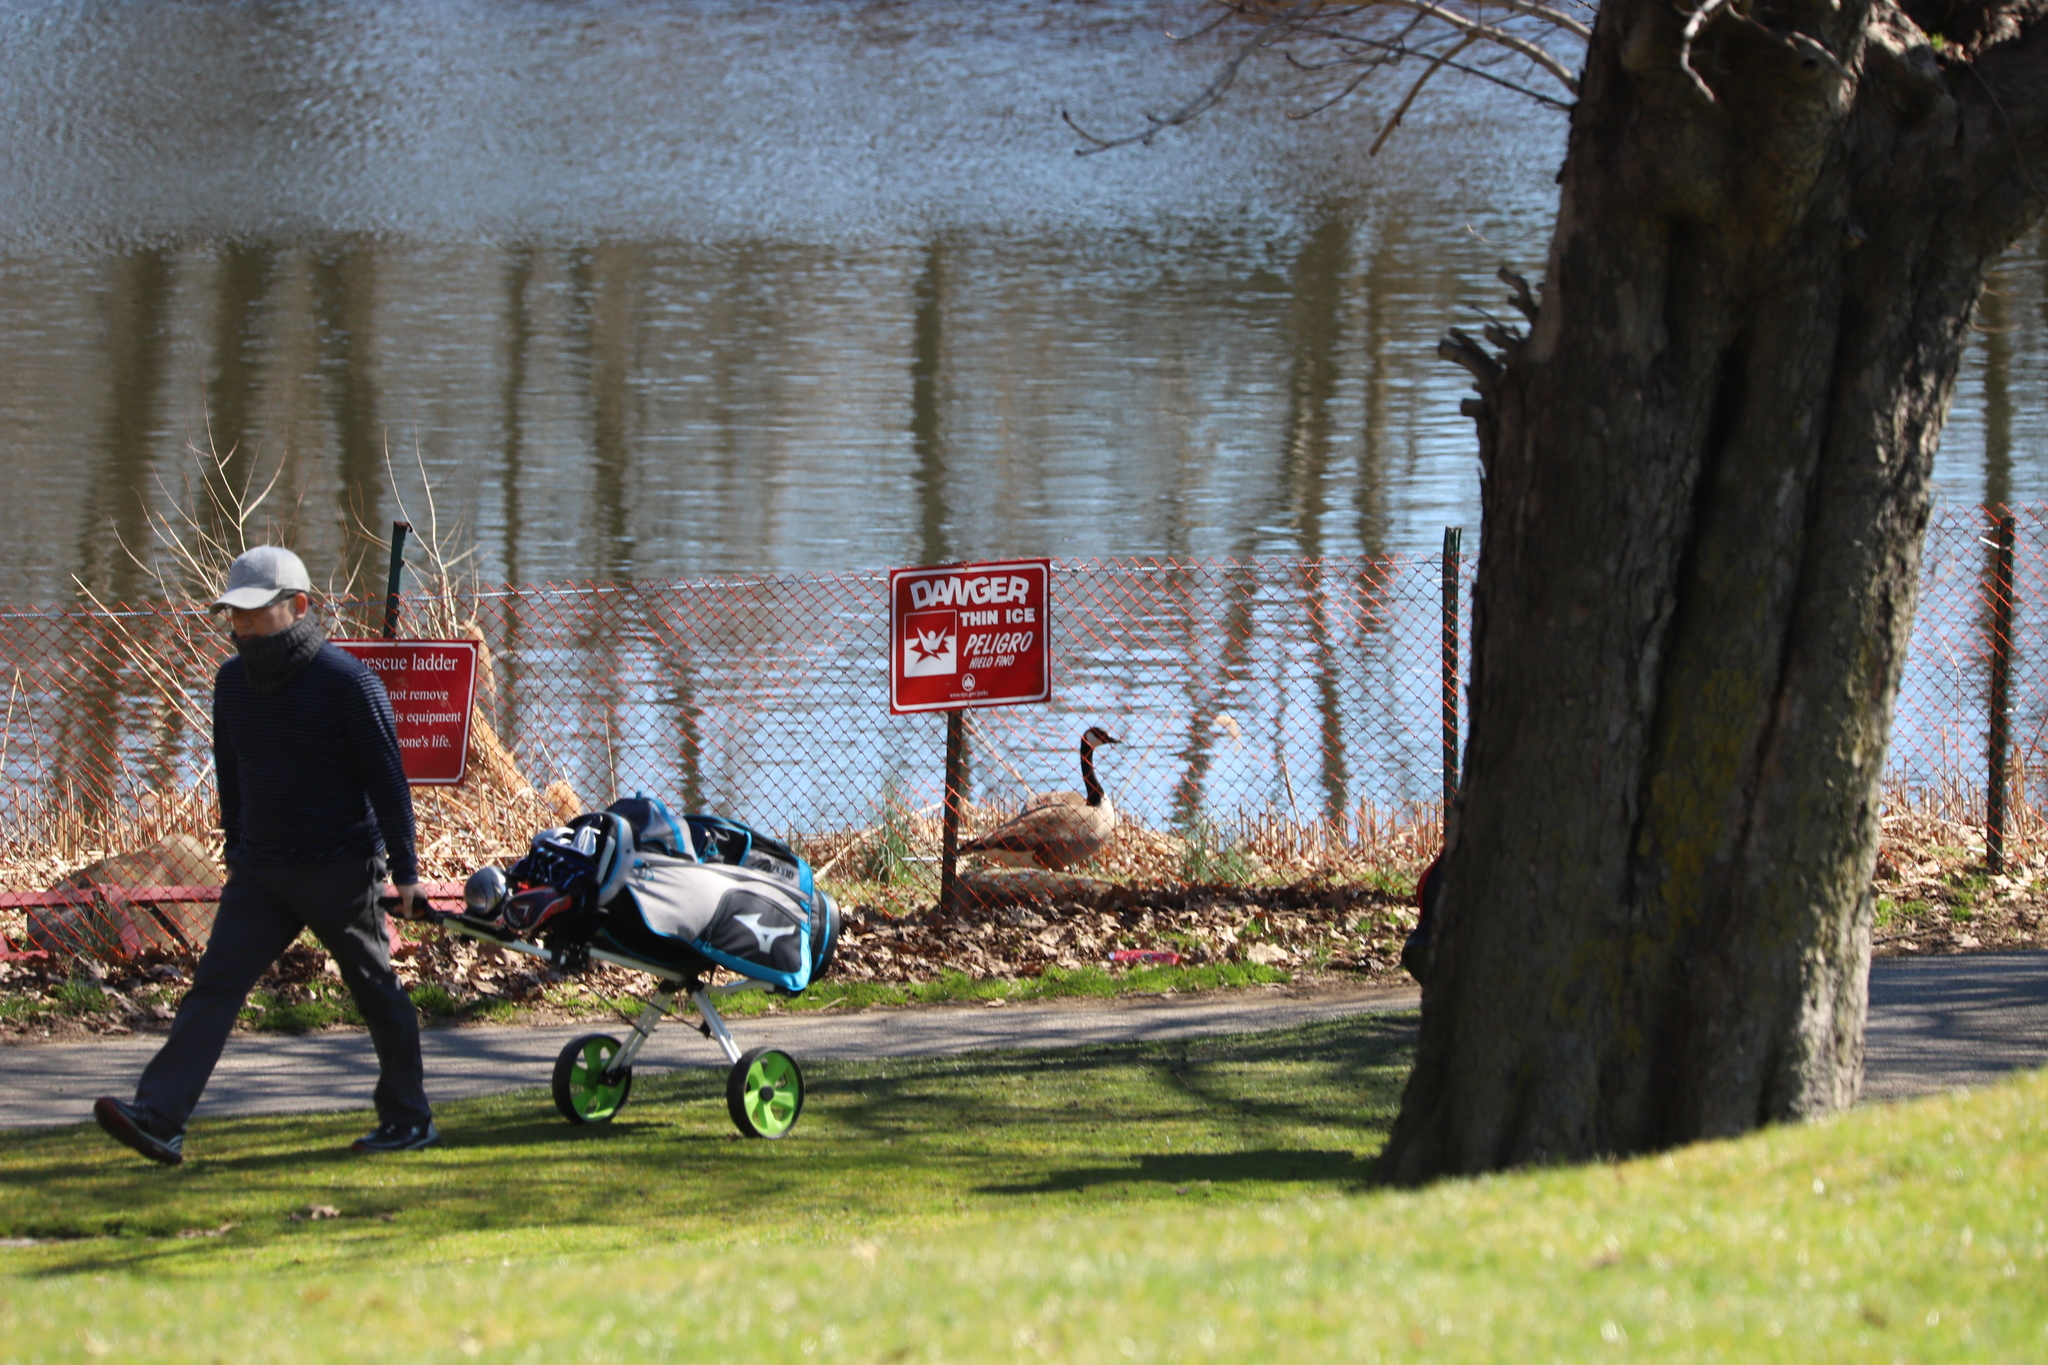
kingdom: Animalia
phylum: Chordata
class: Aves
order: Anseriformes
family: Anatidae
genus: Branta
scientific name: Branta canadensis
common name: Canada goose
